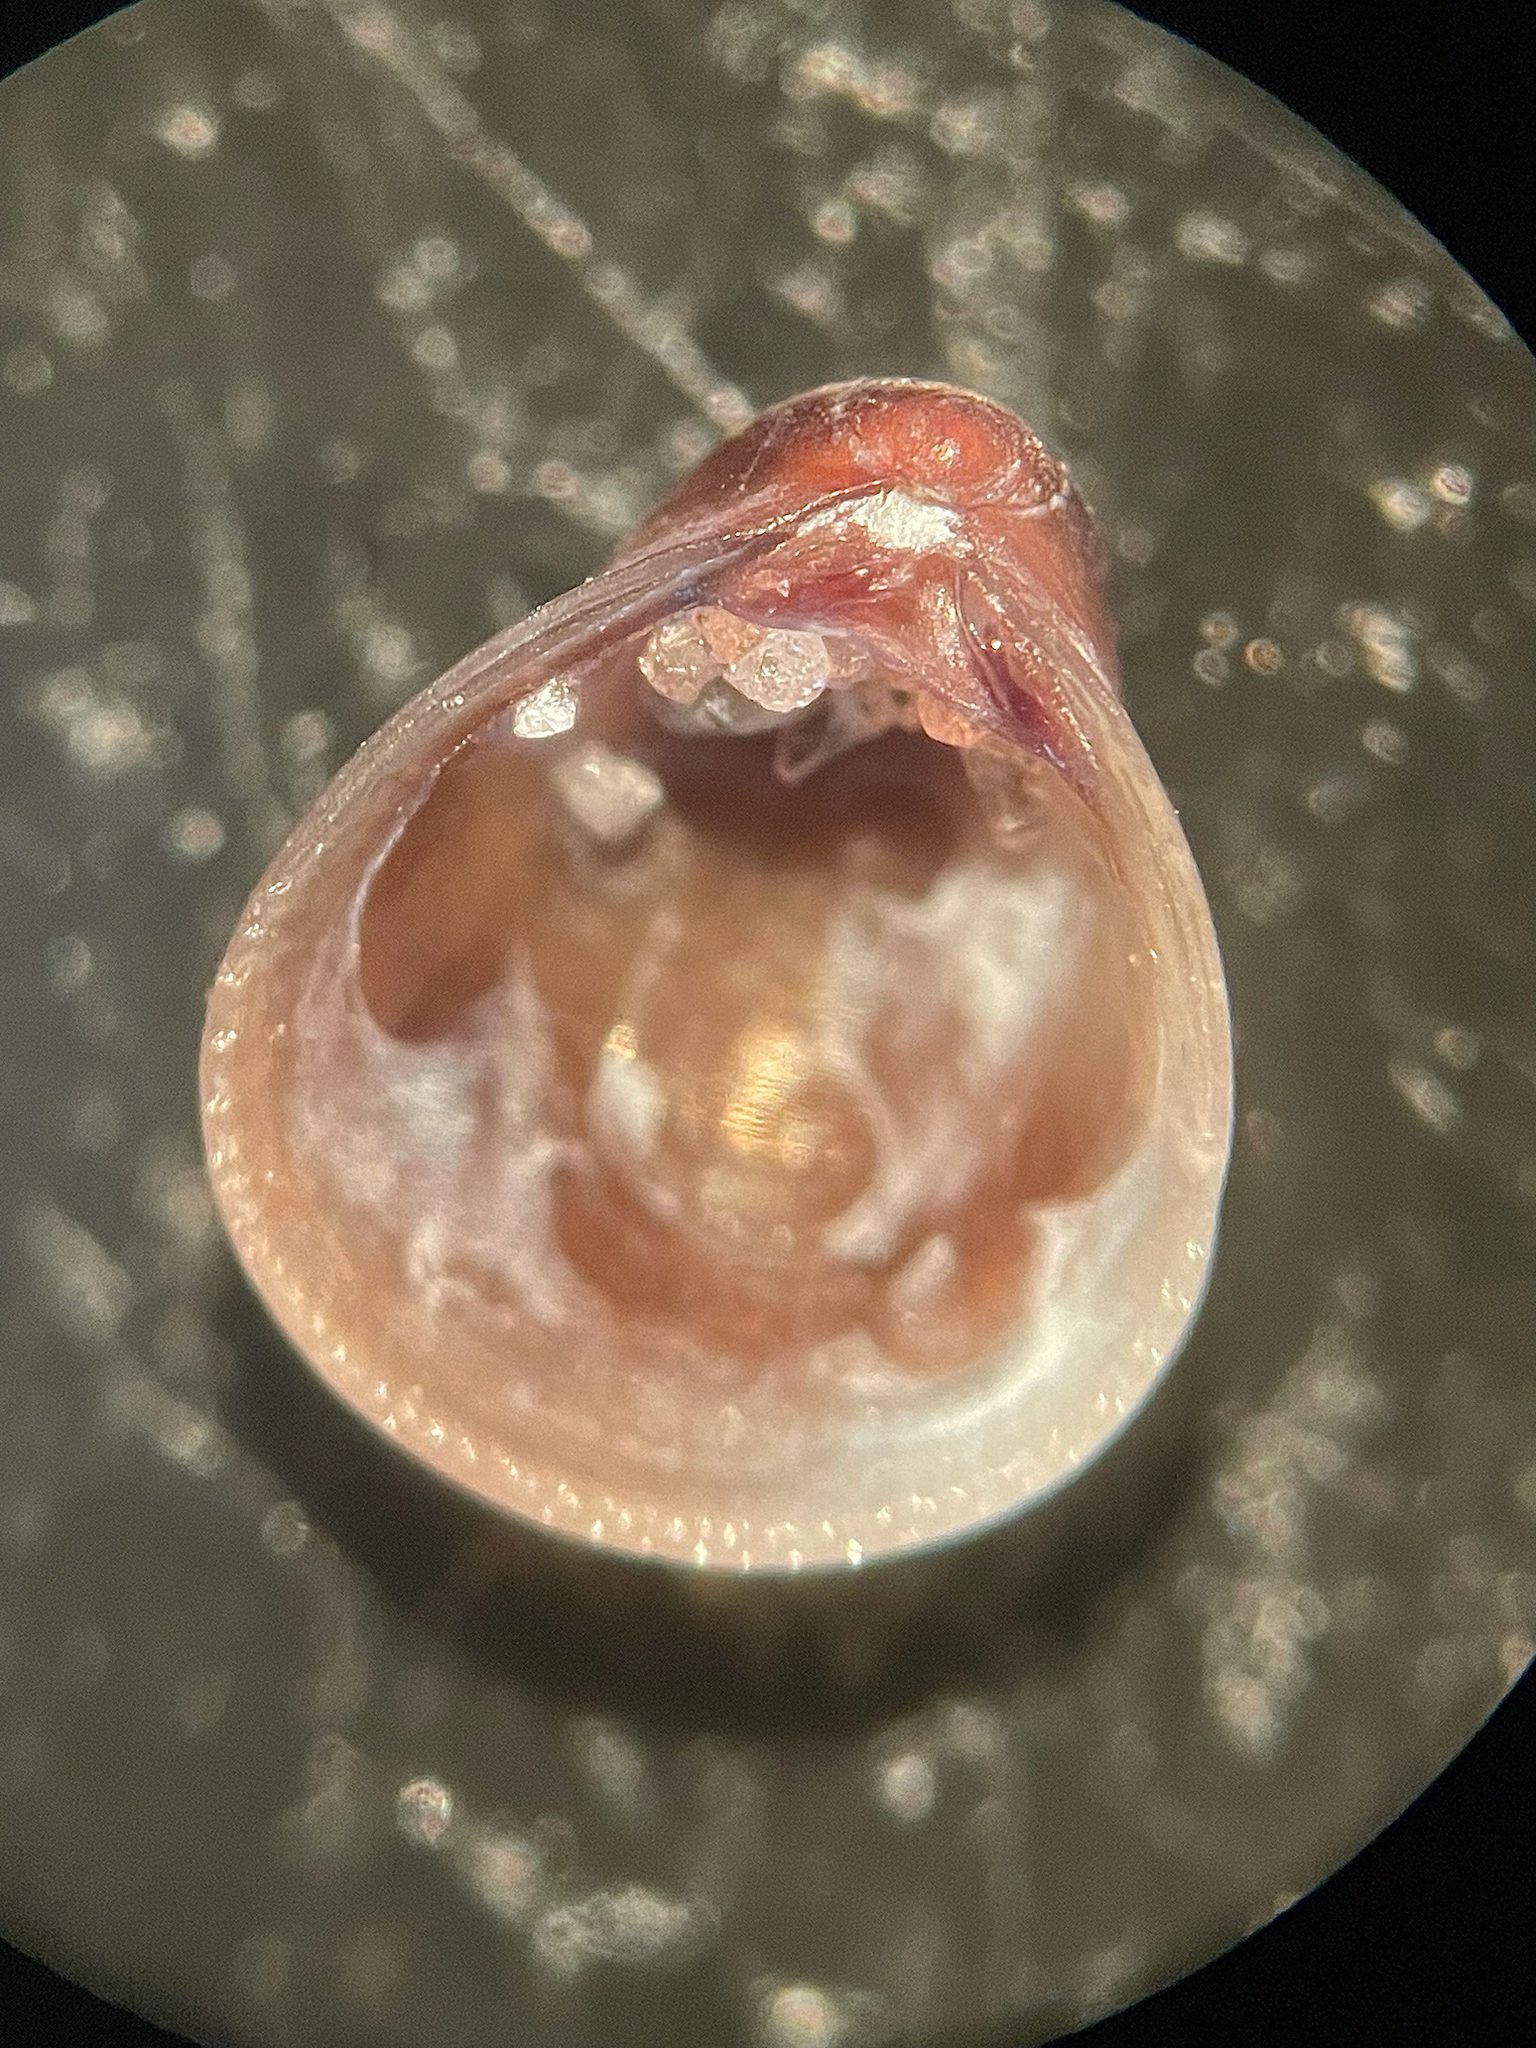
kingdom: Animalia
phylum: Mollusca
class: Bivalvia
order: Venerida
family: Veneridae
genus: Parastarte
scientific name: Parastarte triquetra
